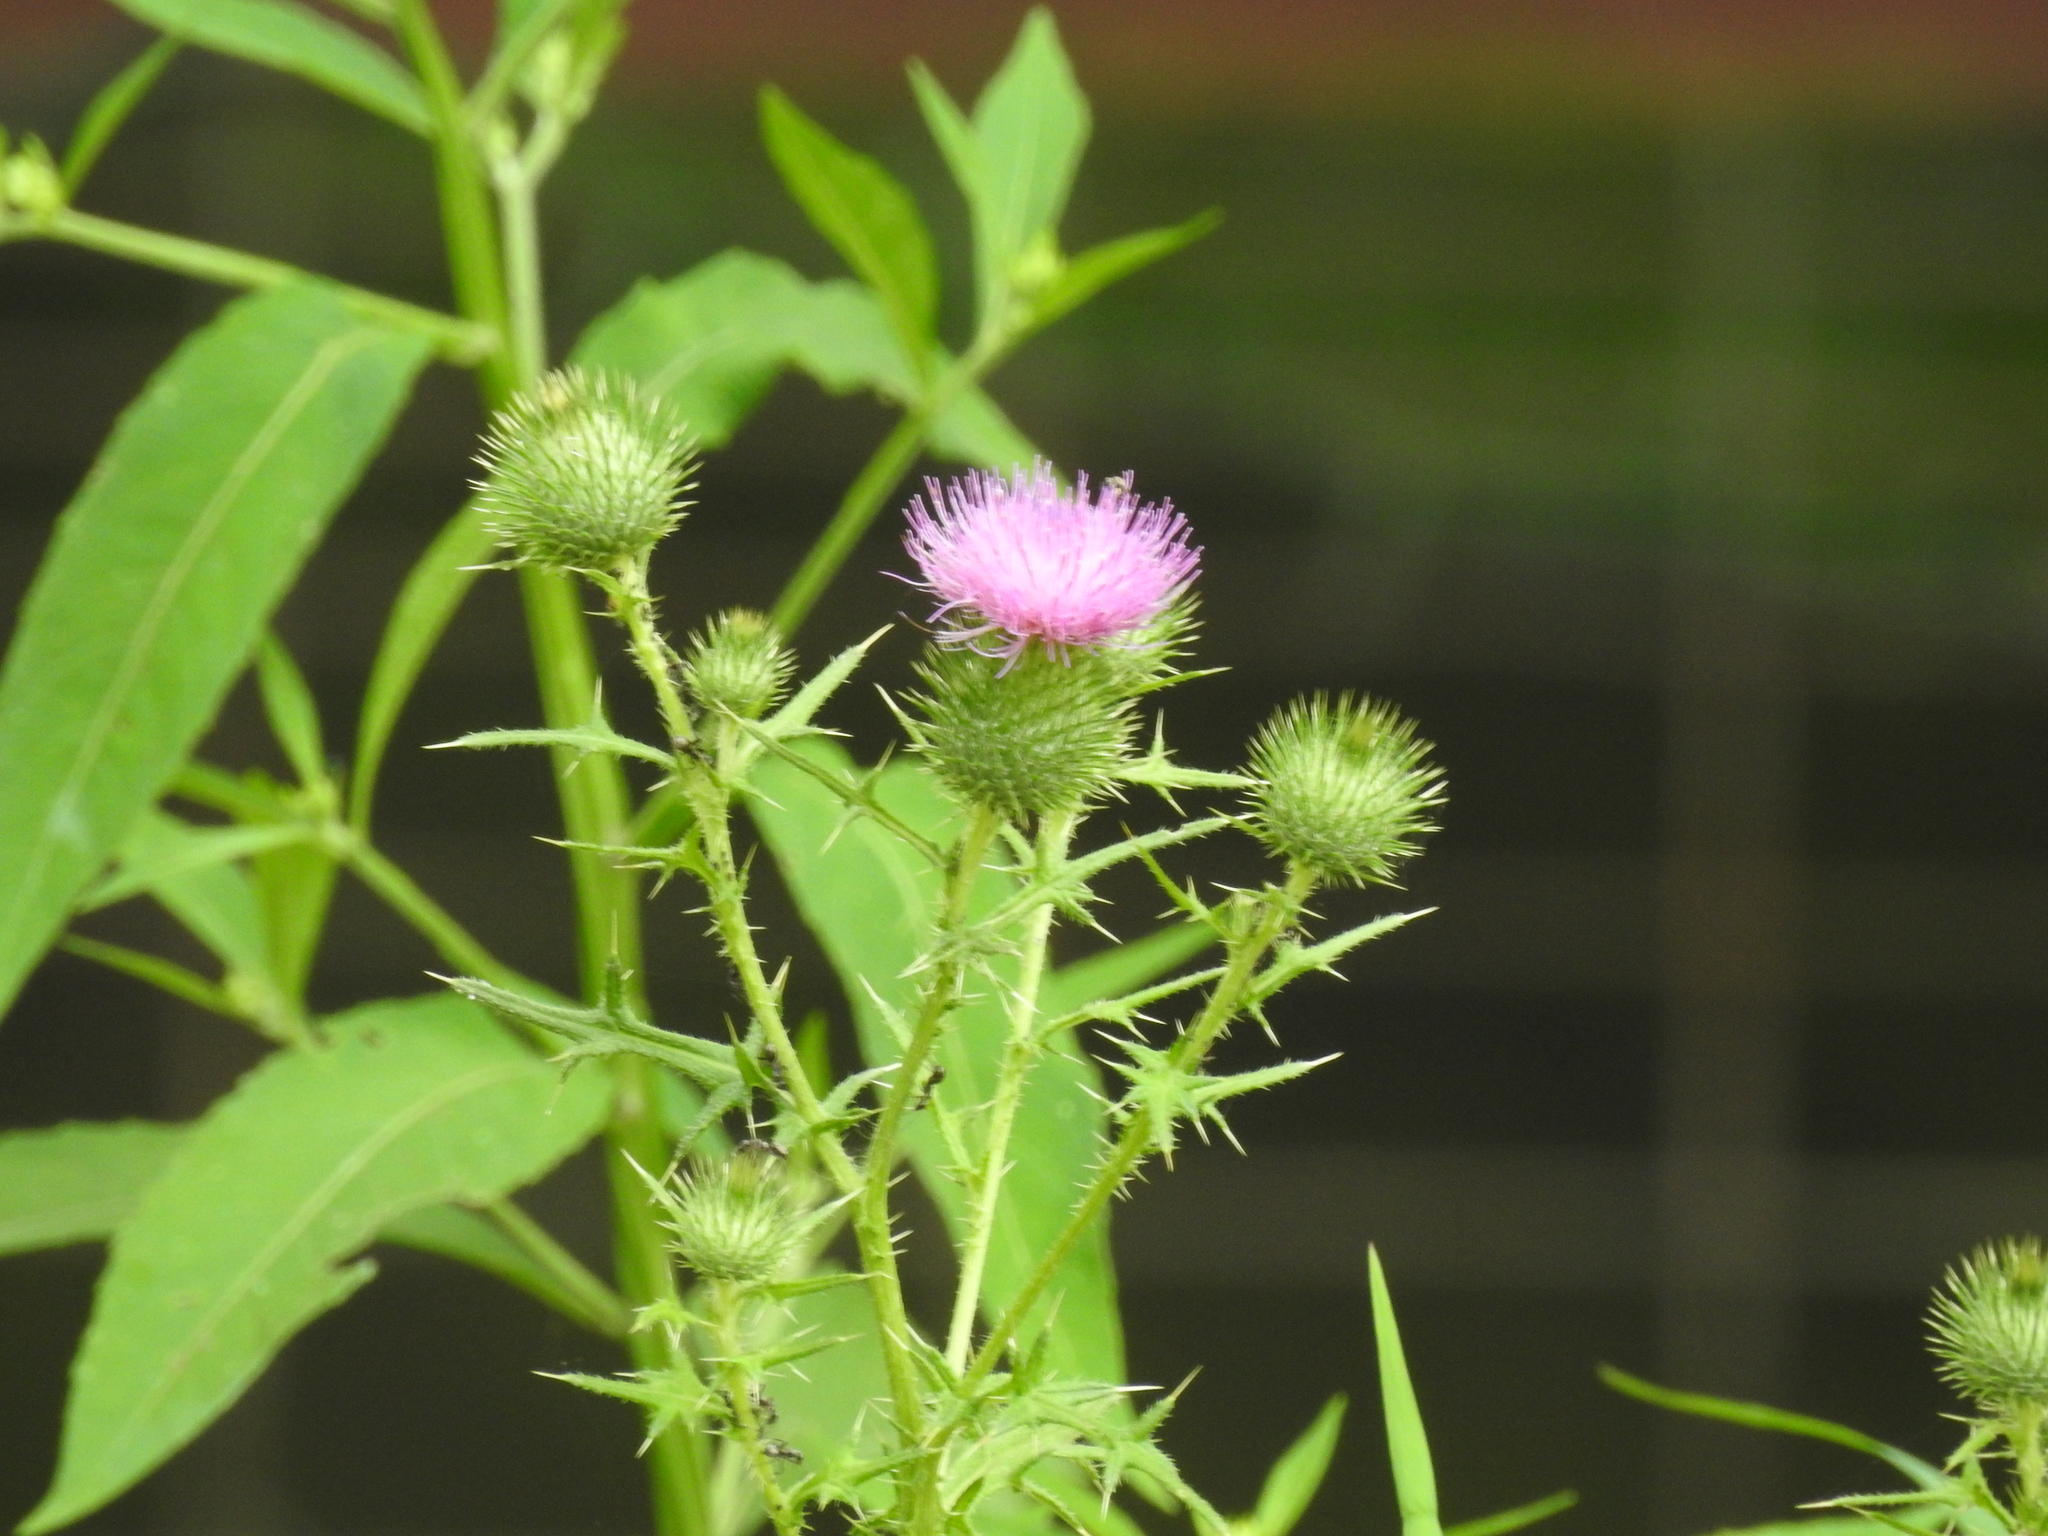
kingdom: Plantae
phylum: Tracheophyta
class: Magnoliopsida
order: Asterales
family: Asteraceae
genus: Cirsium
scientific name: Cirsium vulgare
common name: Bull thistle
